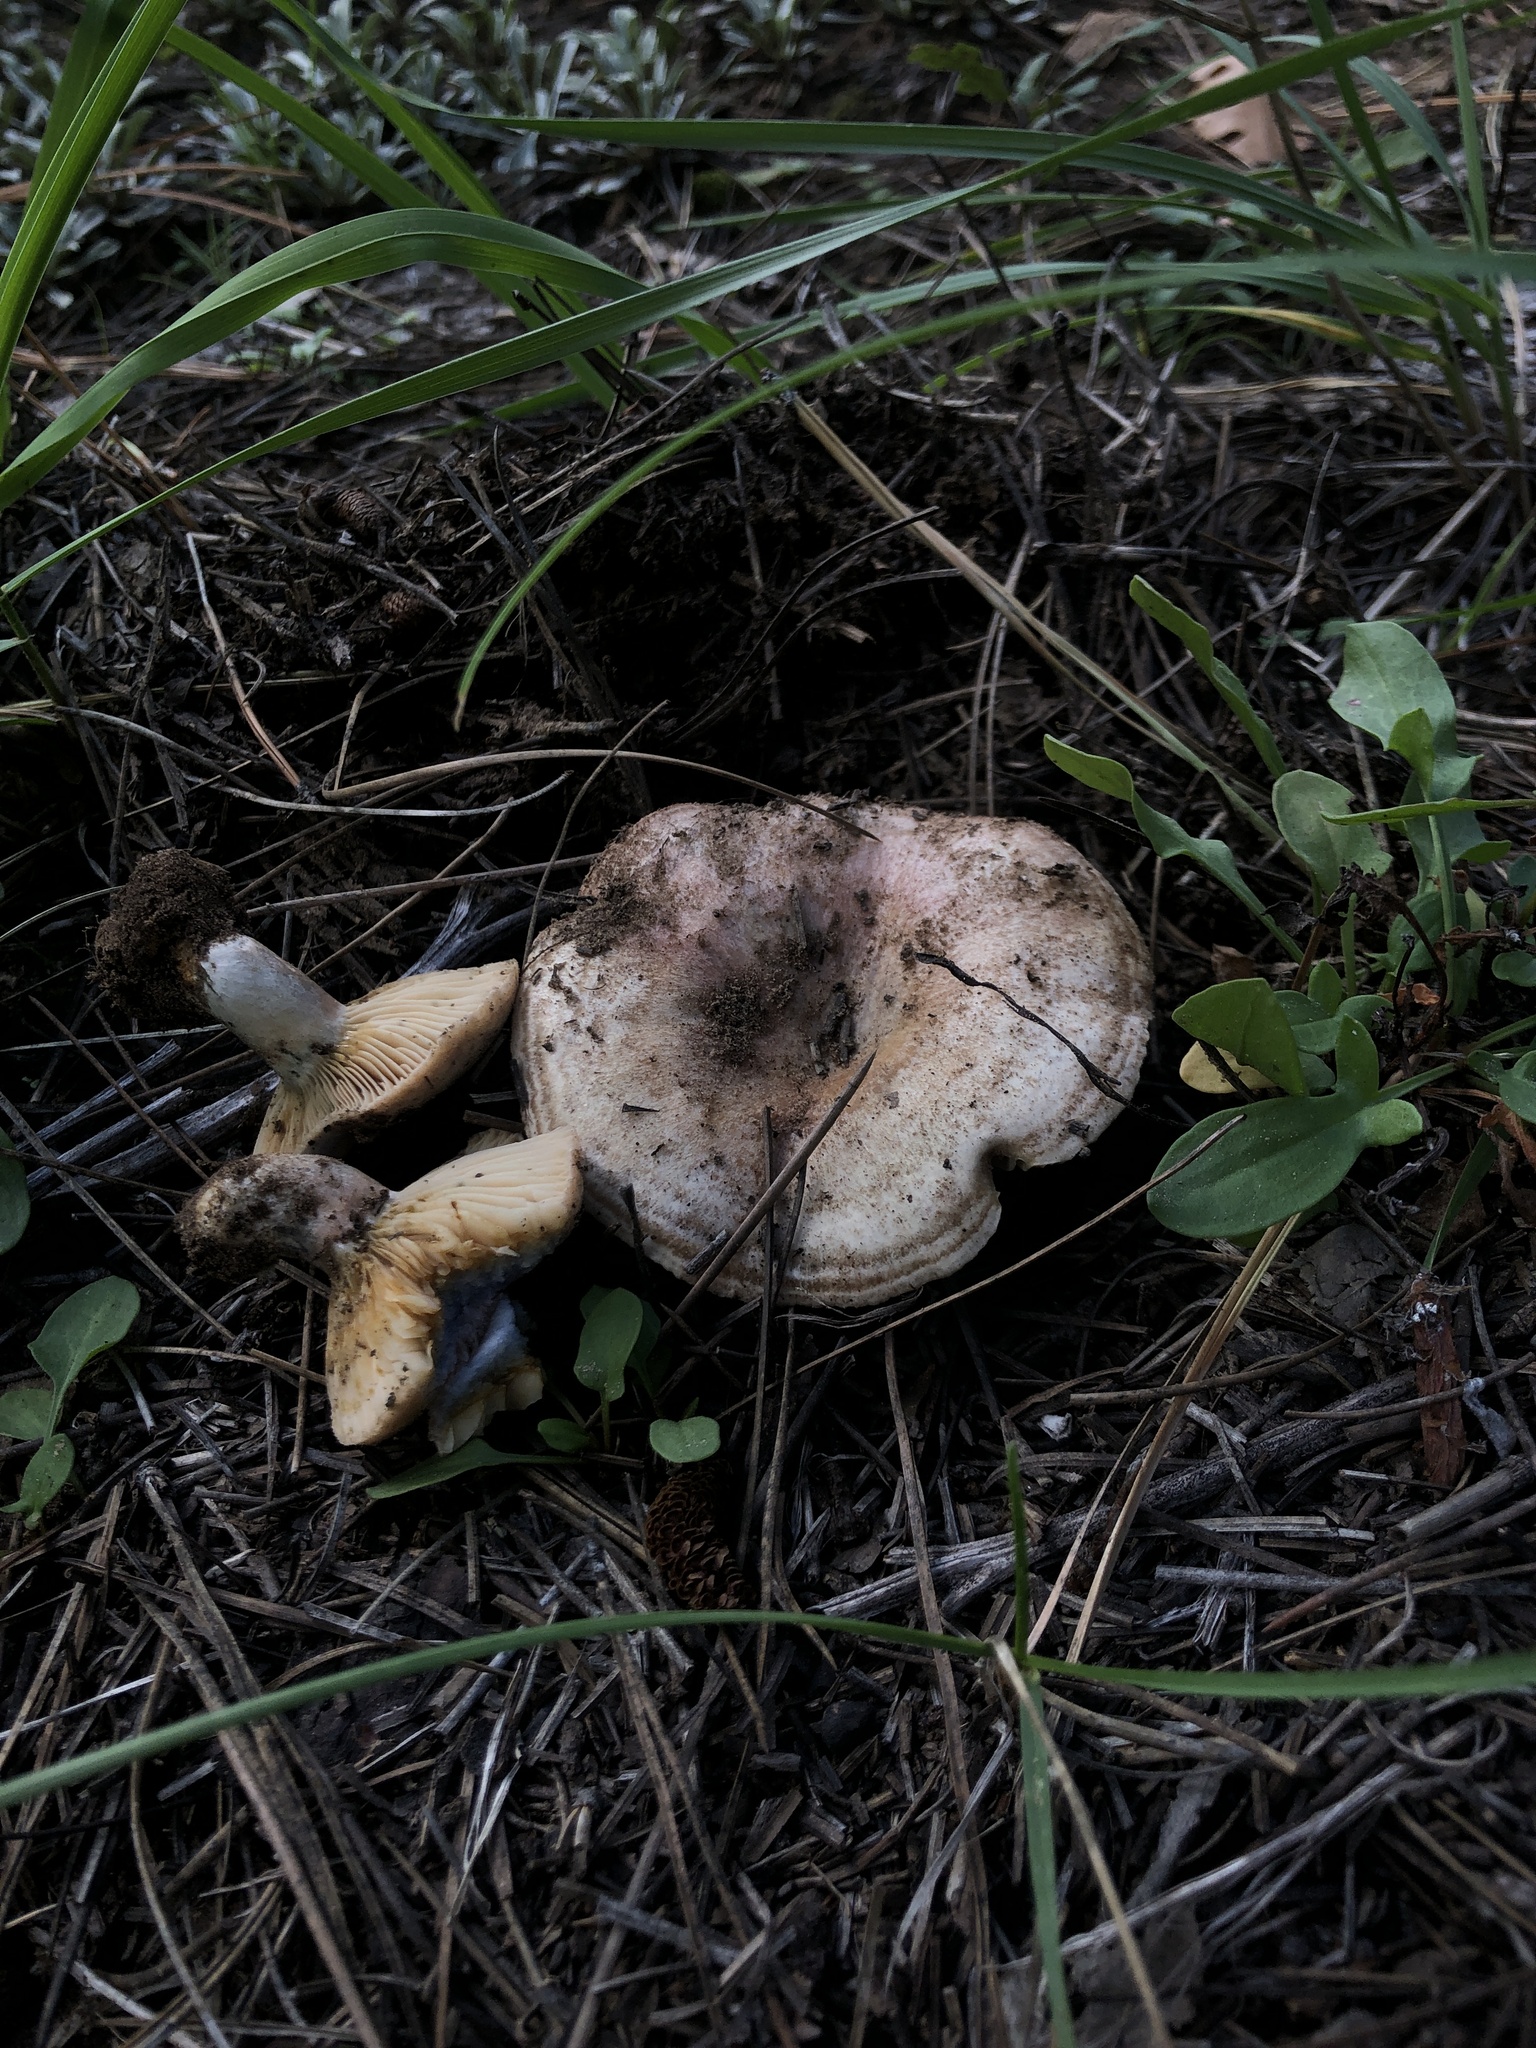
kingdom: Fungi
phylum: Basidiomycota
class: Agaricomycetes
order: Russulales
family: Russulaceae
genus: Lactarius
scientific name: Lactarius deterrimus
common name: False saffron milkcap
